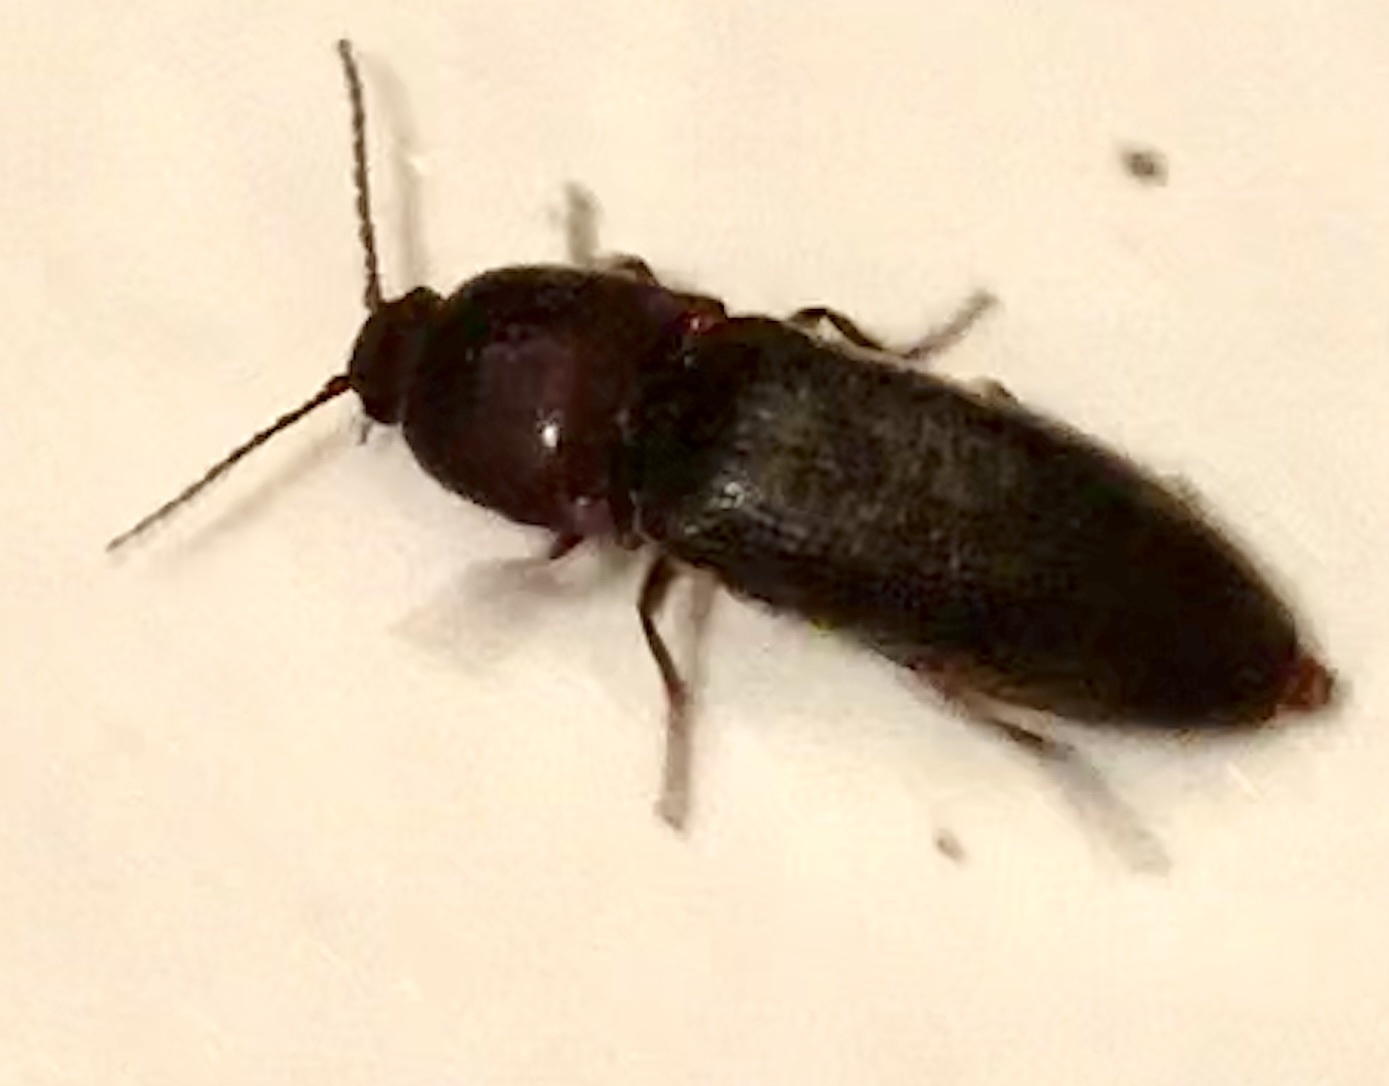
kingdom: Animalia
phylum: Arthropoda
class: Insecta
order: Coleoptera
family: Elateridae
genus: Melanotus
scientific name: Melanotus dichrous
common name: Click beetle
